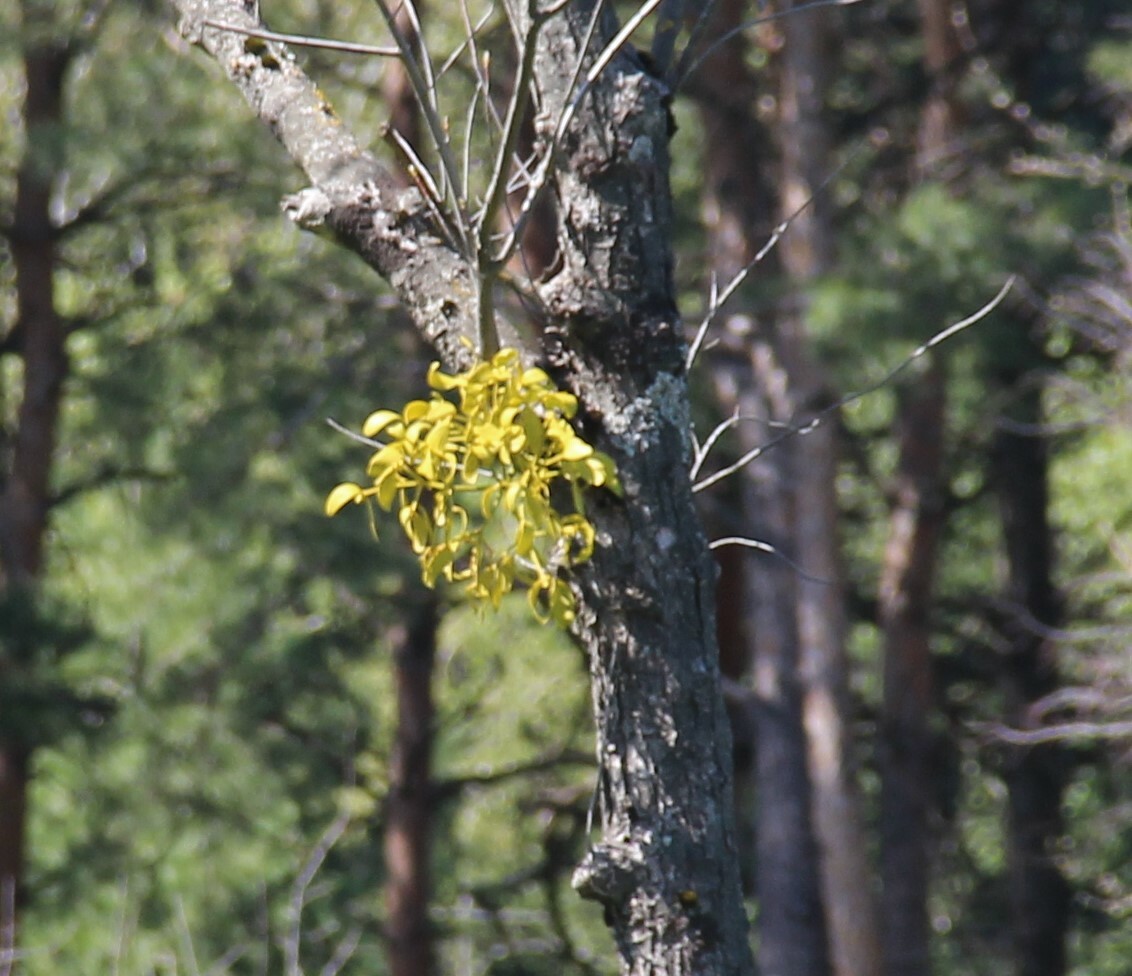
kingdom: Plantae
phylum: Tracheophyta
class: Magnoliopsida
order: Santalales
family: Viscaceae
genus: Viscum
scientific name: Viscum album
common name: Mistletoe
